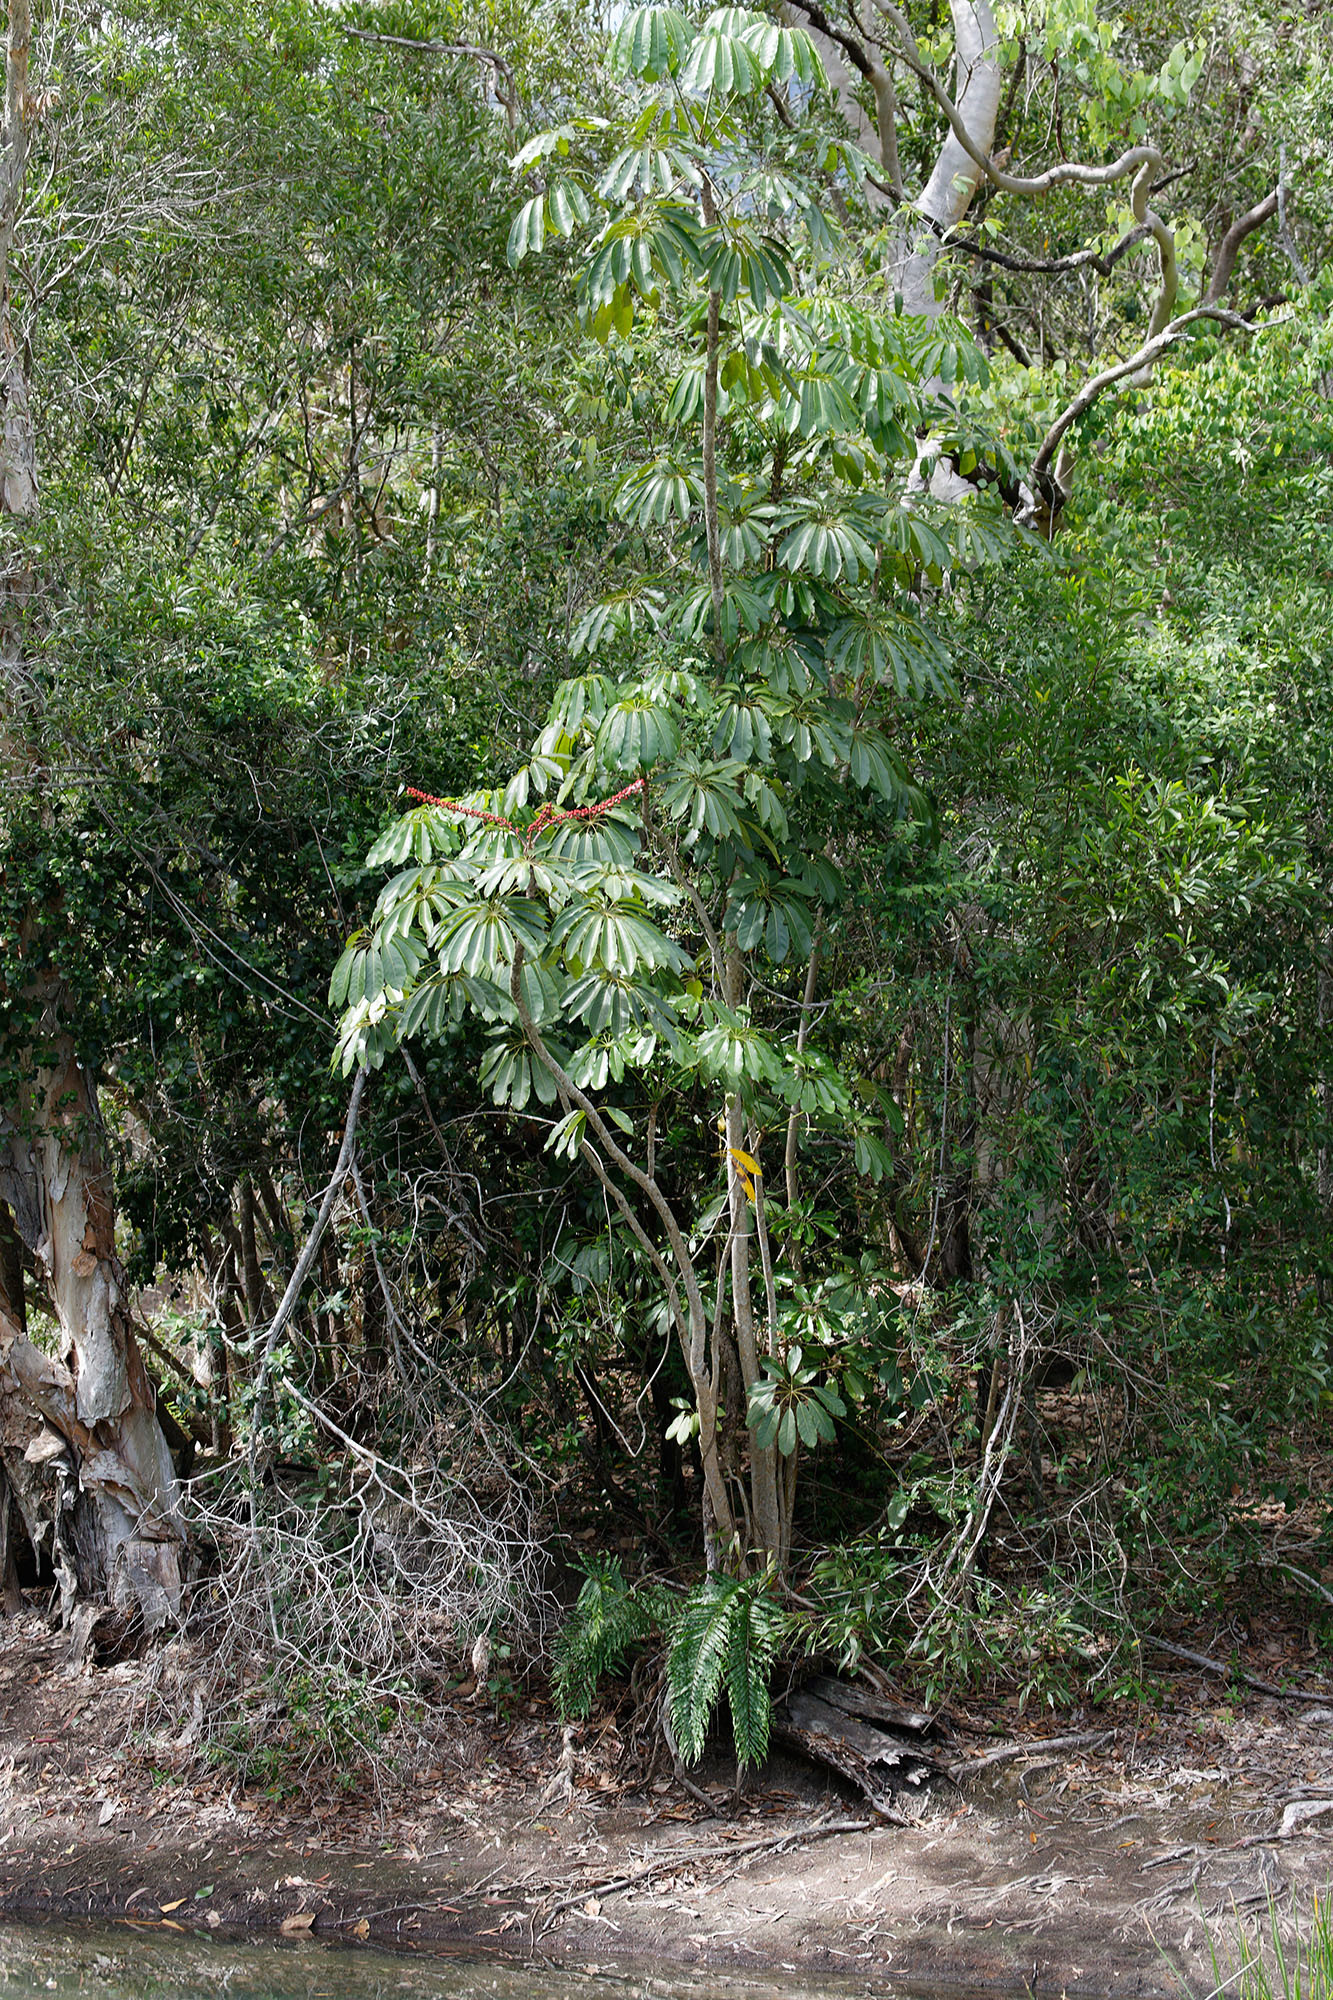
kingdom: Plantae
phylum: Tracheophyta
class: Magnoliopsida
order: Apiales
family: Araliaceae
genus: Heptapleurum
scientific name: Heptapleurum actinophyllum
